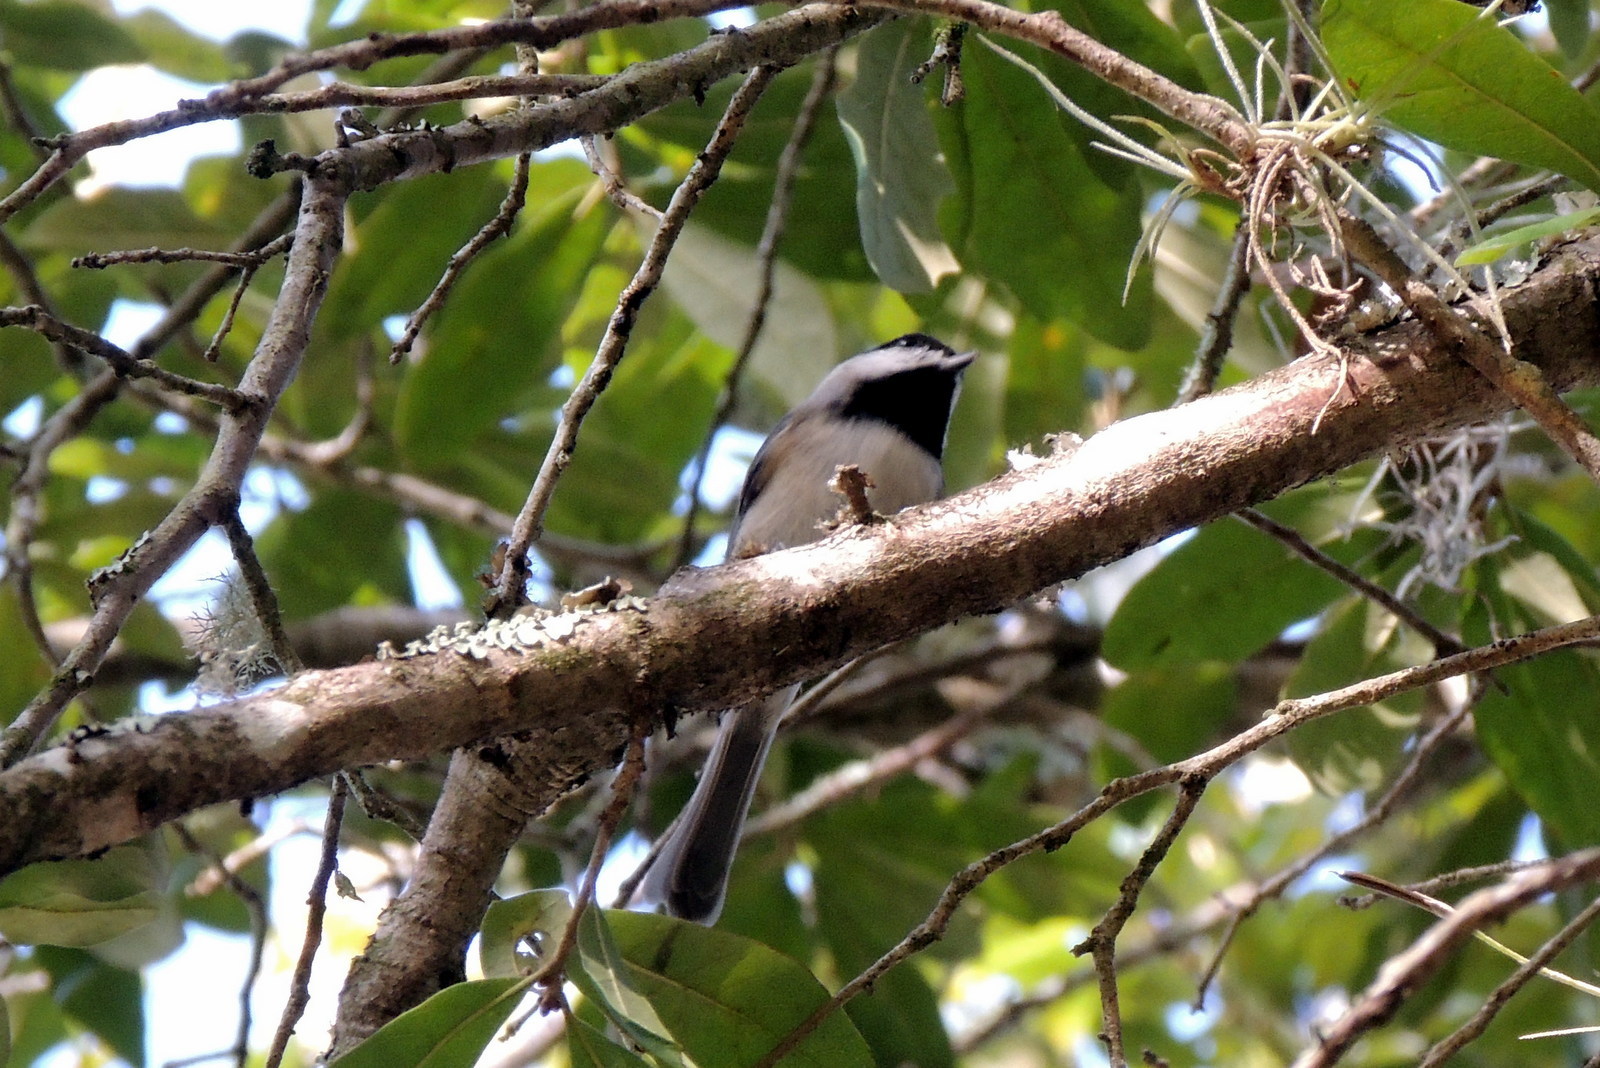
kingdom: Animalia
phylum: Chordata
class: Aves
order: Passeriformes
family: Paridae
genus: Poecile
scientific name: Poecile carolinensis
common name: Carolina chickadee
